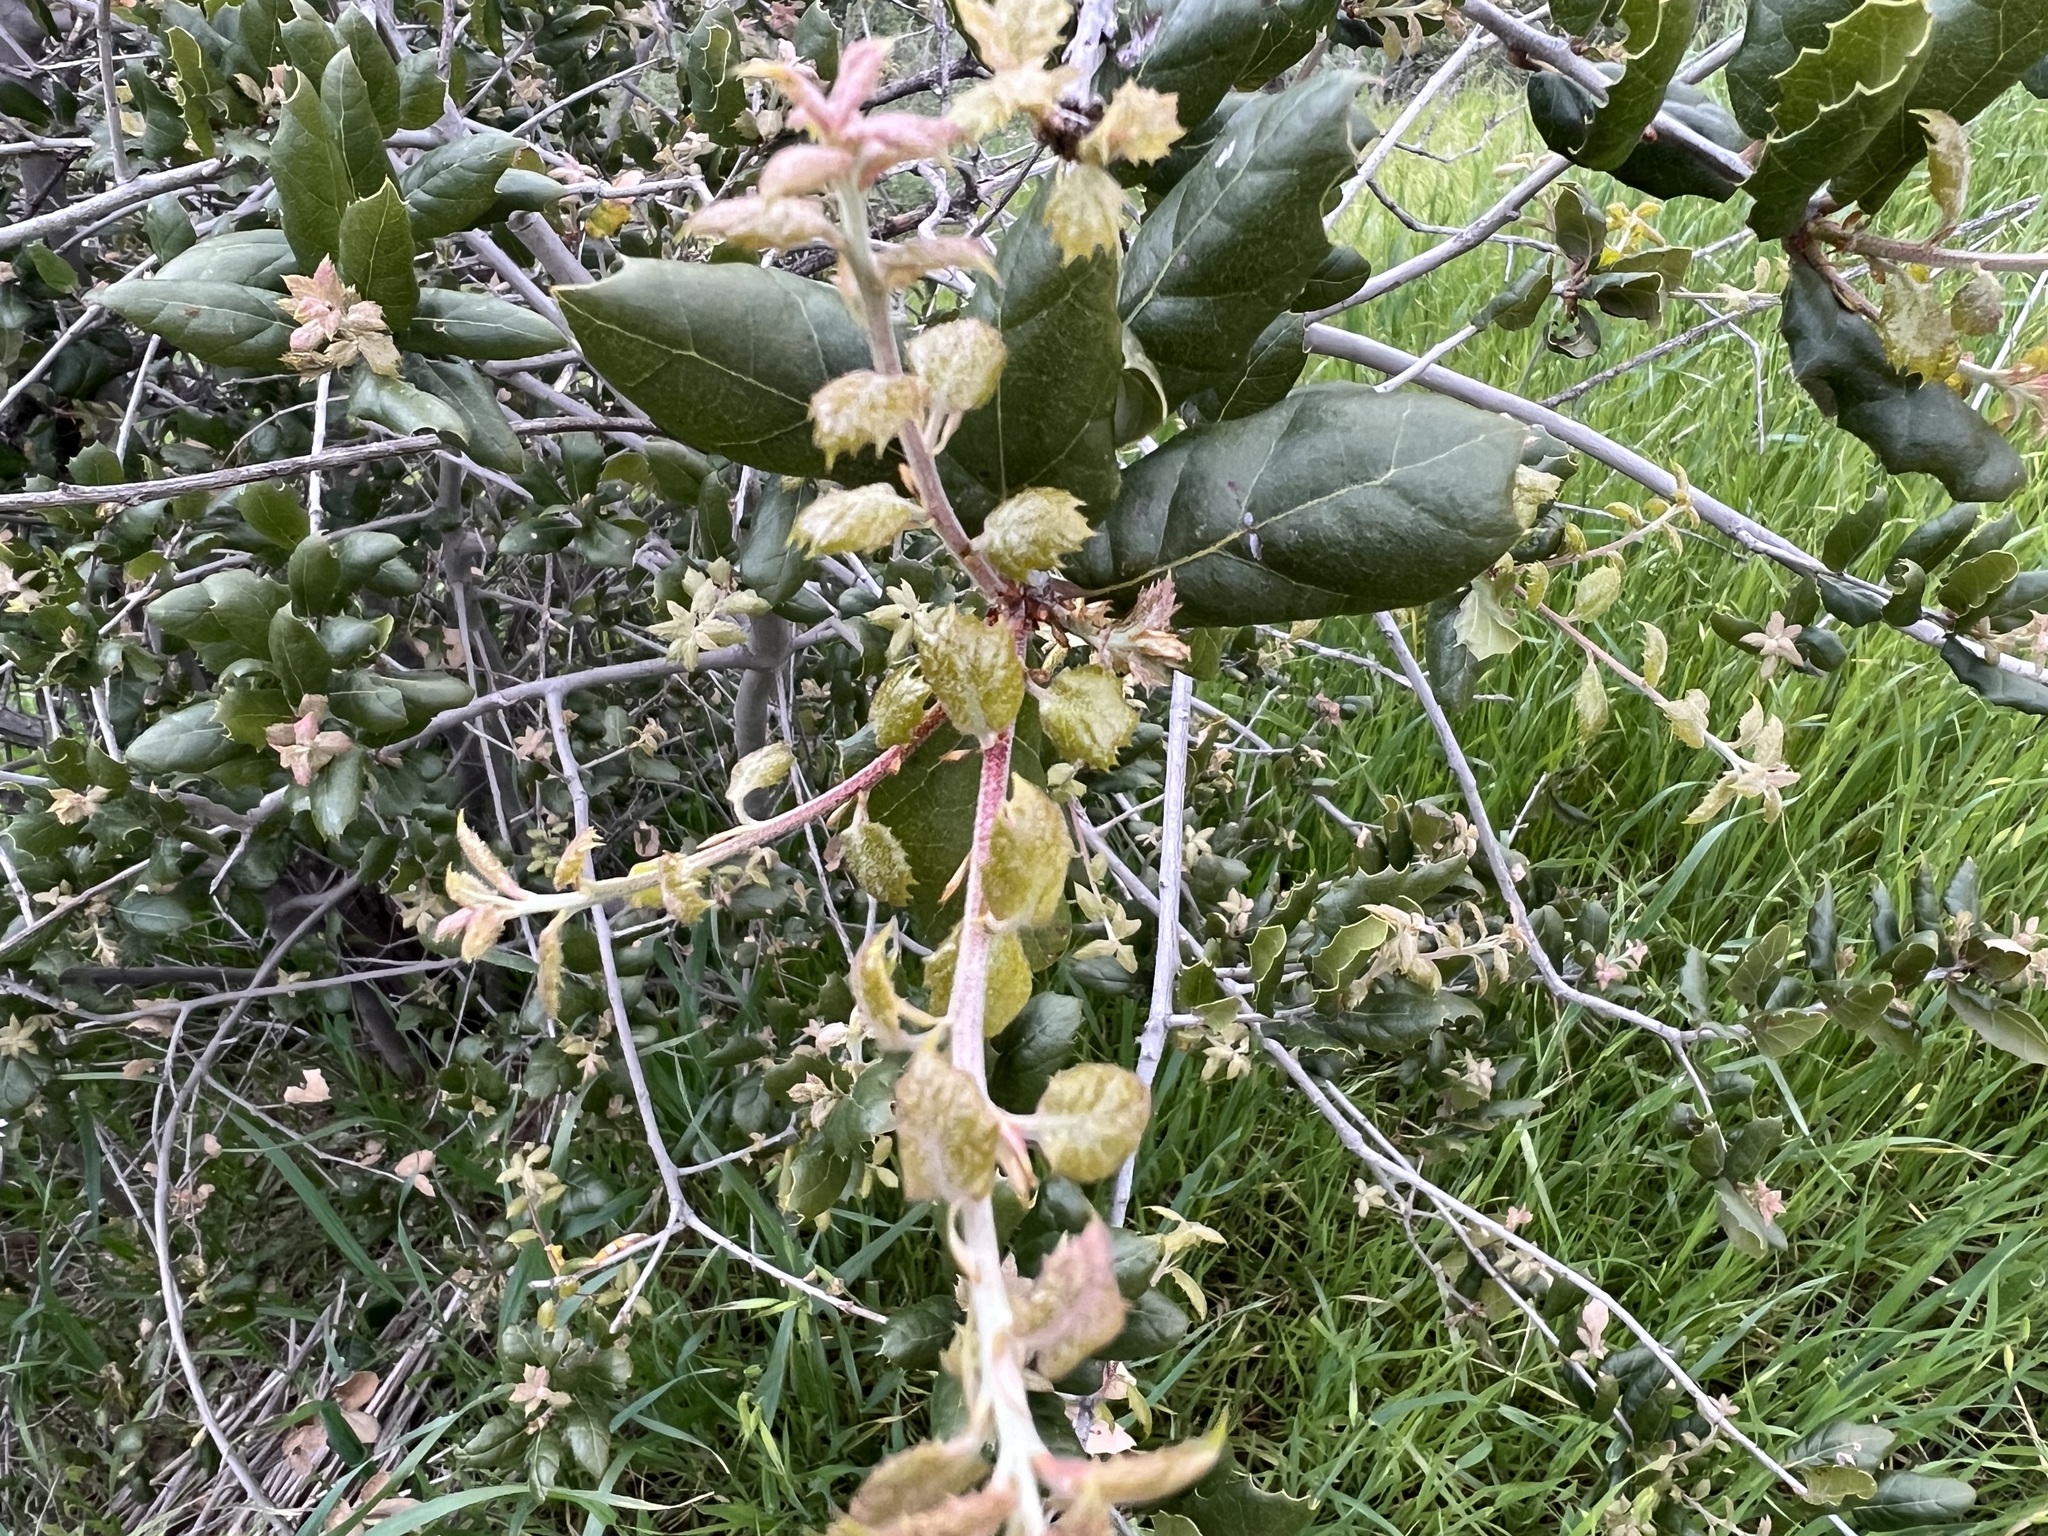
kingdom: Plantae
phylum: Tracheophyta
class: Magnoliopsida
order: Fagales
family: Fagaceae
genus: Quercus
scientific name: Quercus agrifolia
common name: California live oak
